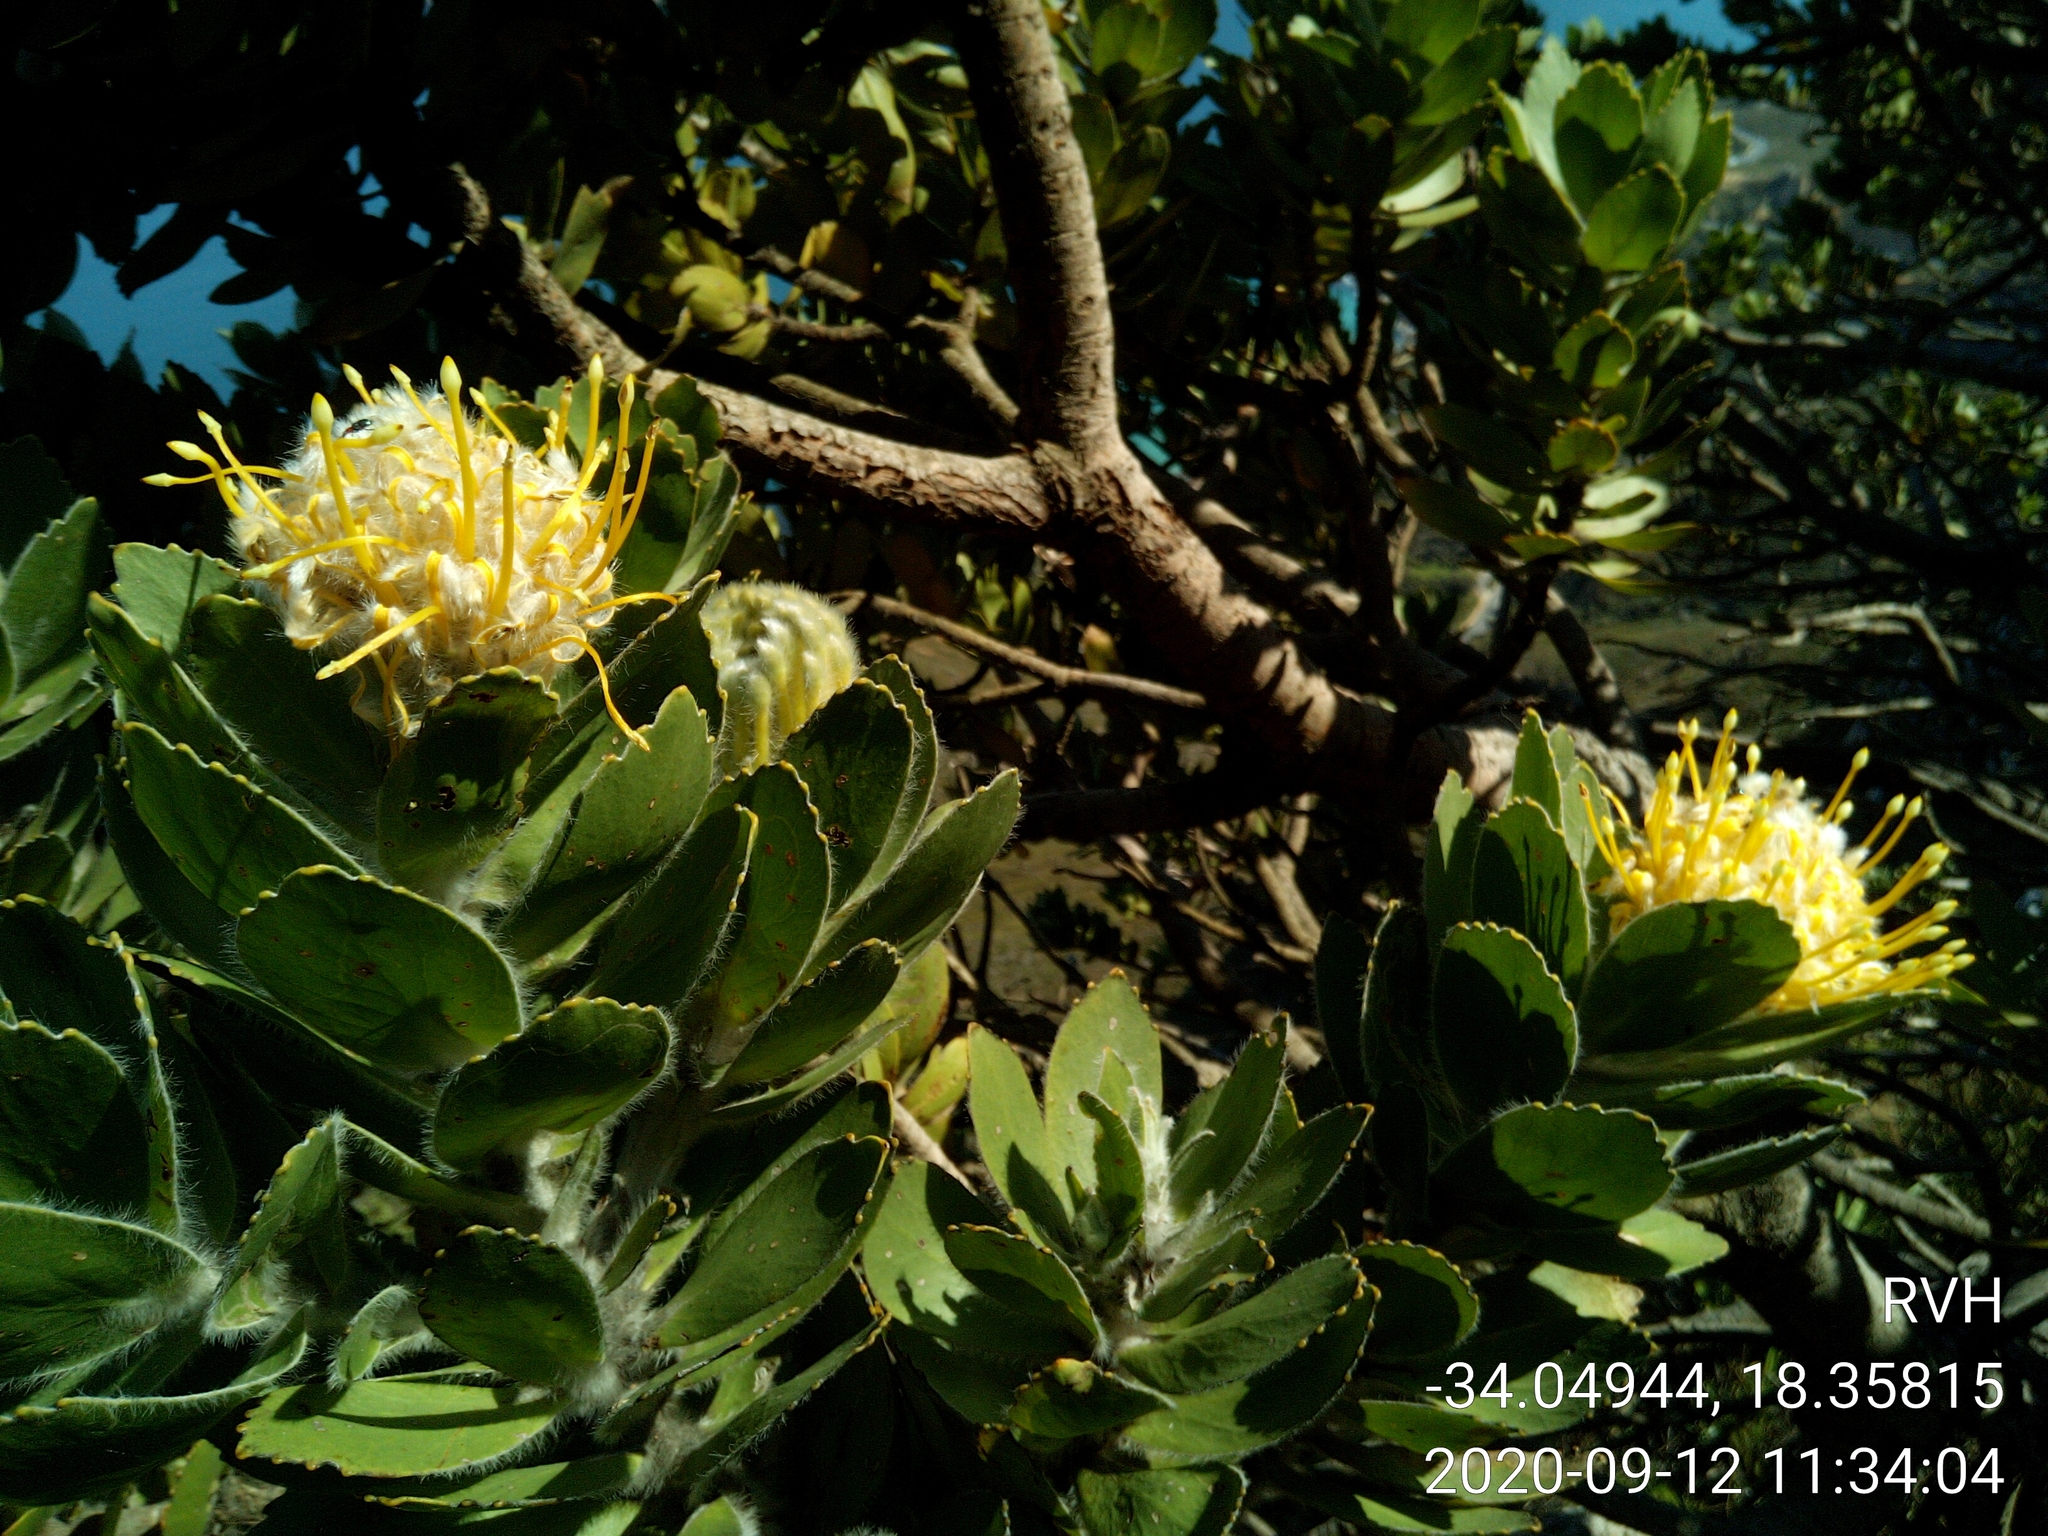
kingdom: Plantae
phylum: Tracheophyta
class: Magnoliopsida
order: Proteales
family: Proteaceae
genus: Leucospermum
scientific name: Leucospermum conocarpodendron
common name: Tree pincushion
